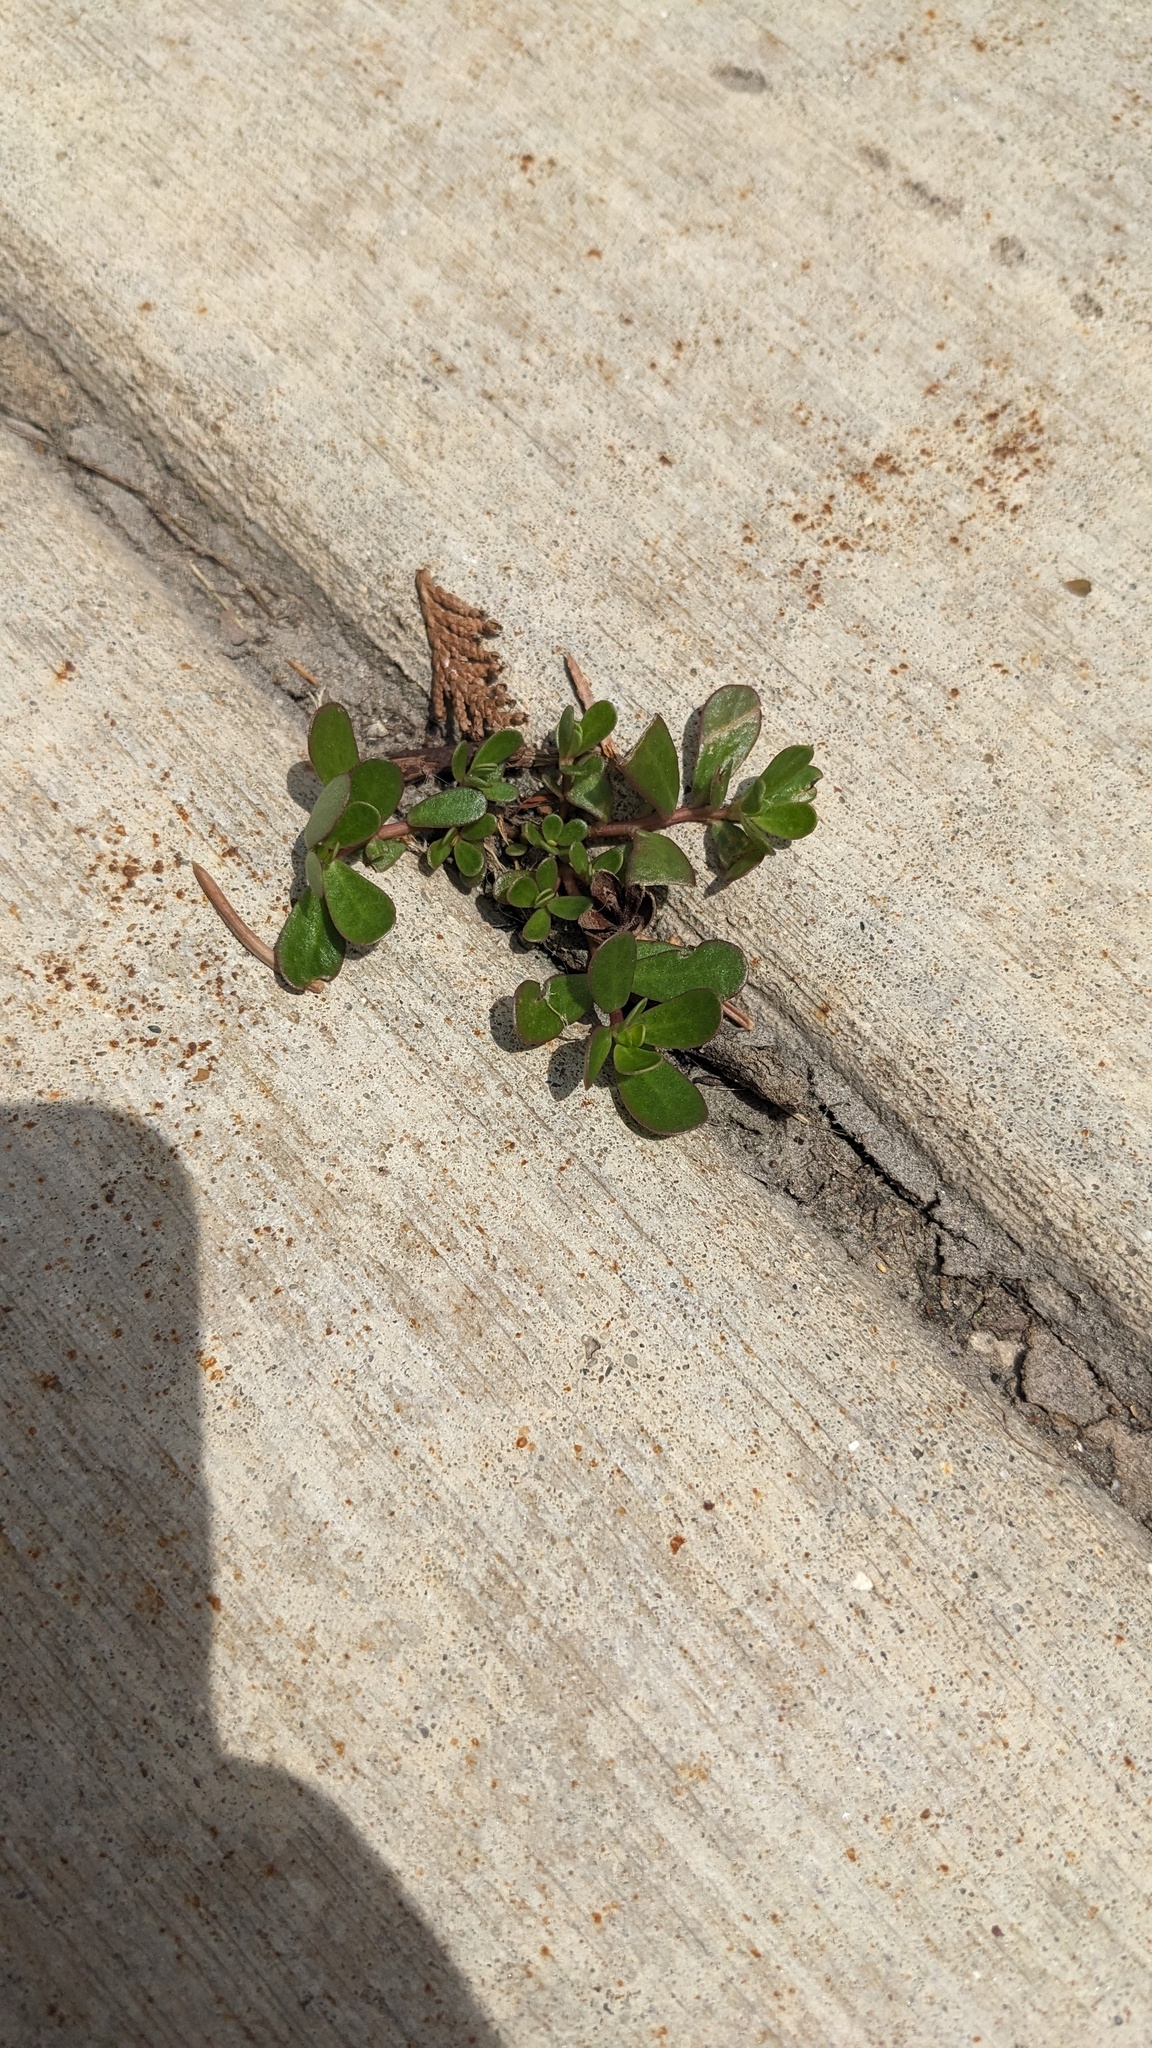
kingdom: Plantae
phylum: Tracheophyta
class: Magnoliopsida
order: Caryophyllales
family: Portulacaceae
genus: Portulaca
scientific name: Portulaca oleracea
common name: Common purslane
